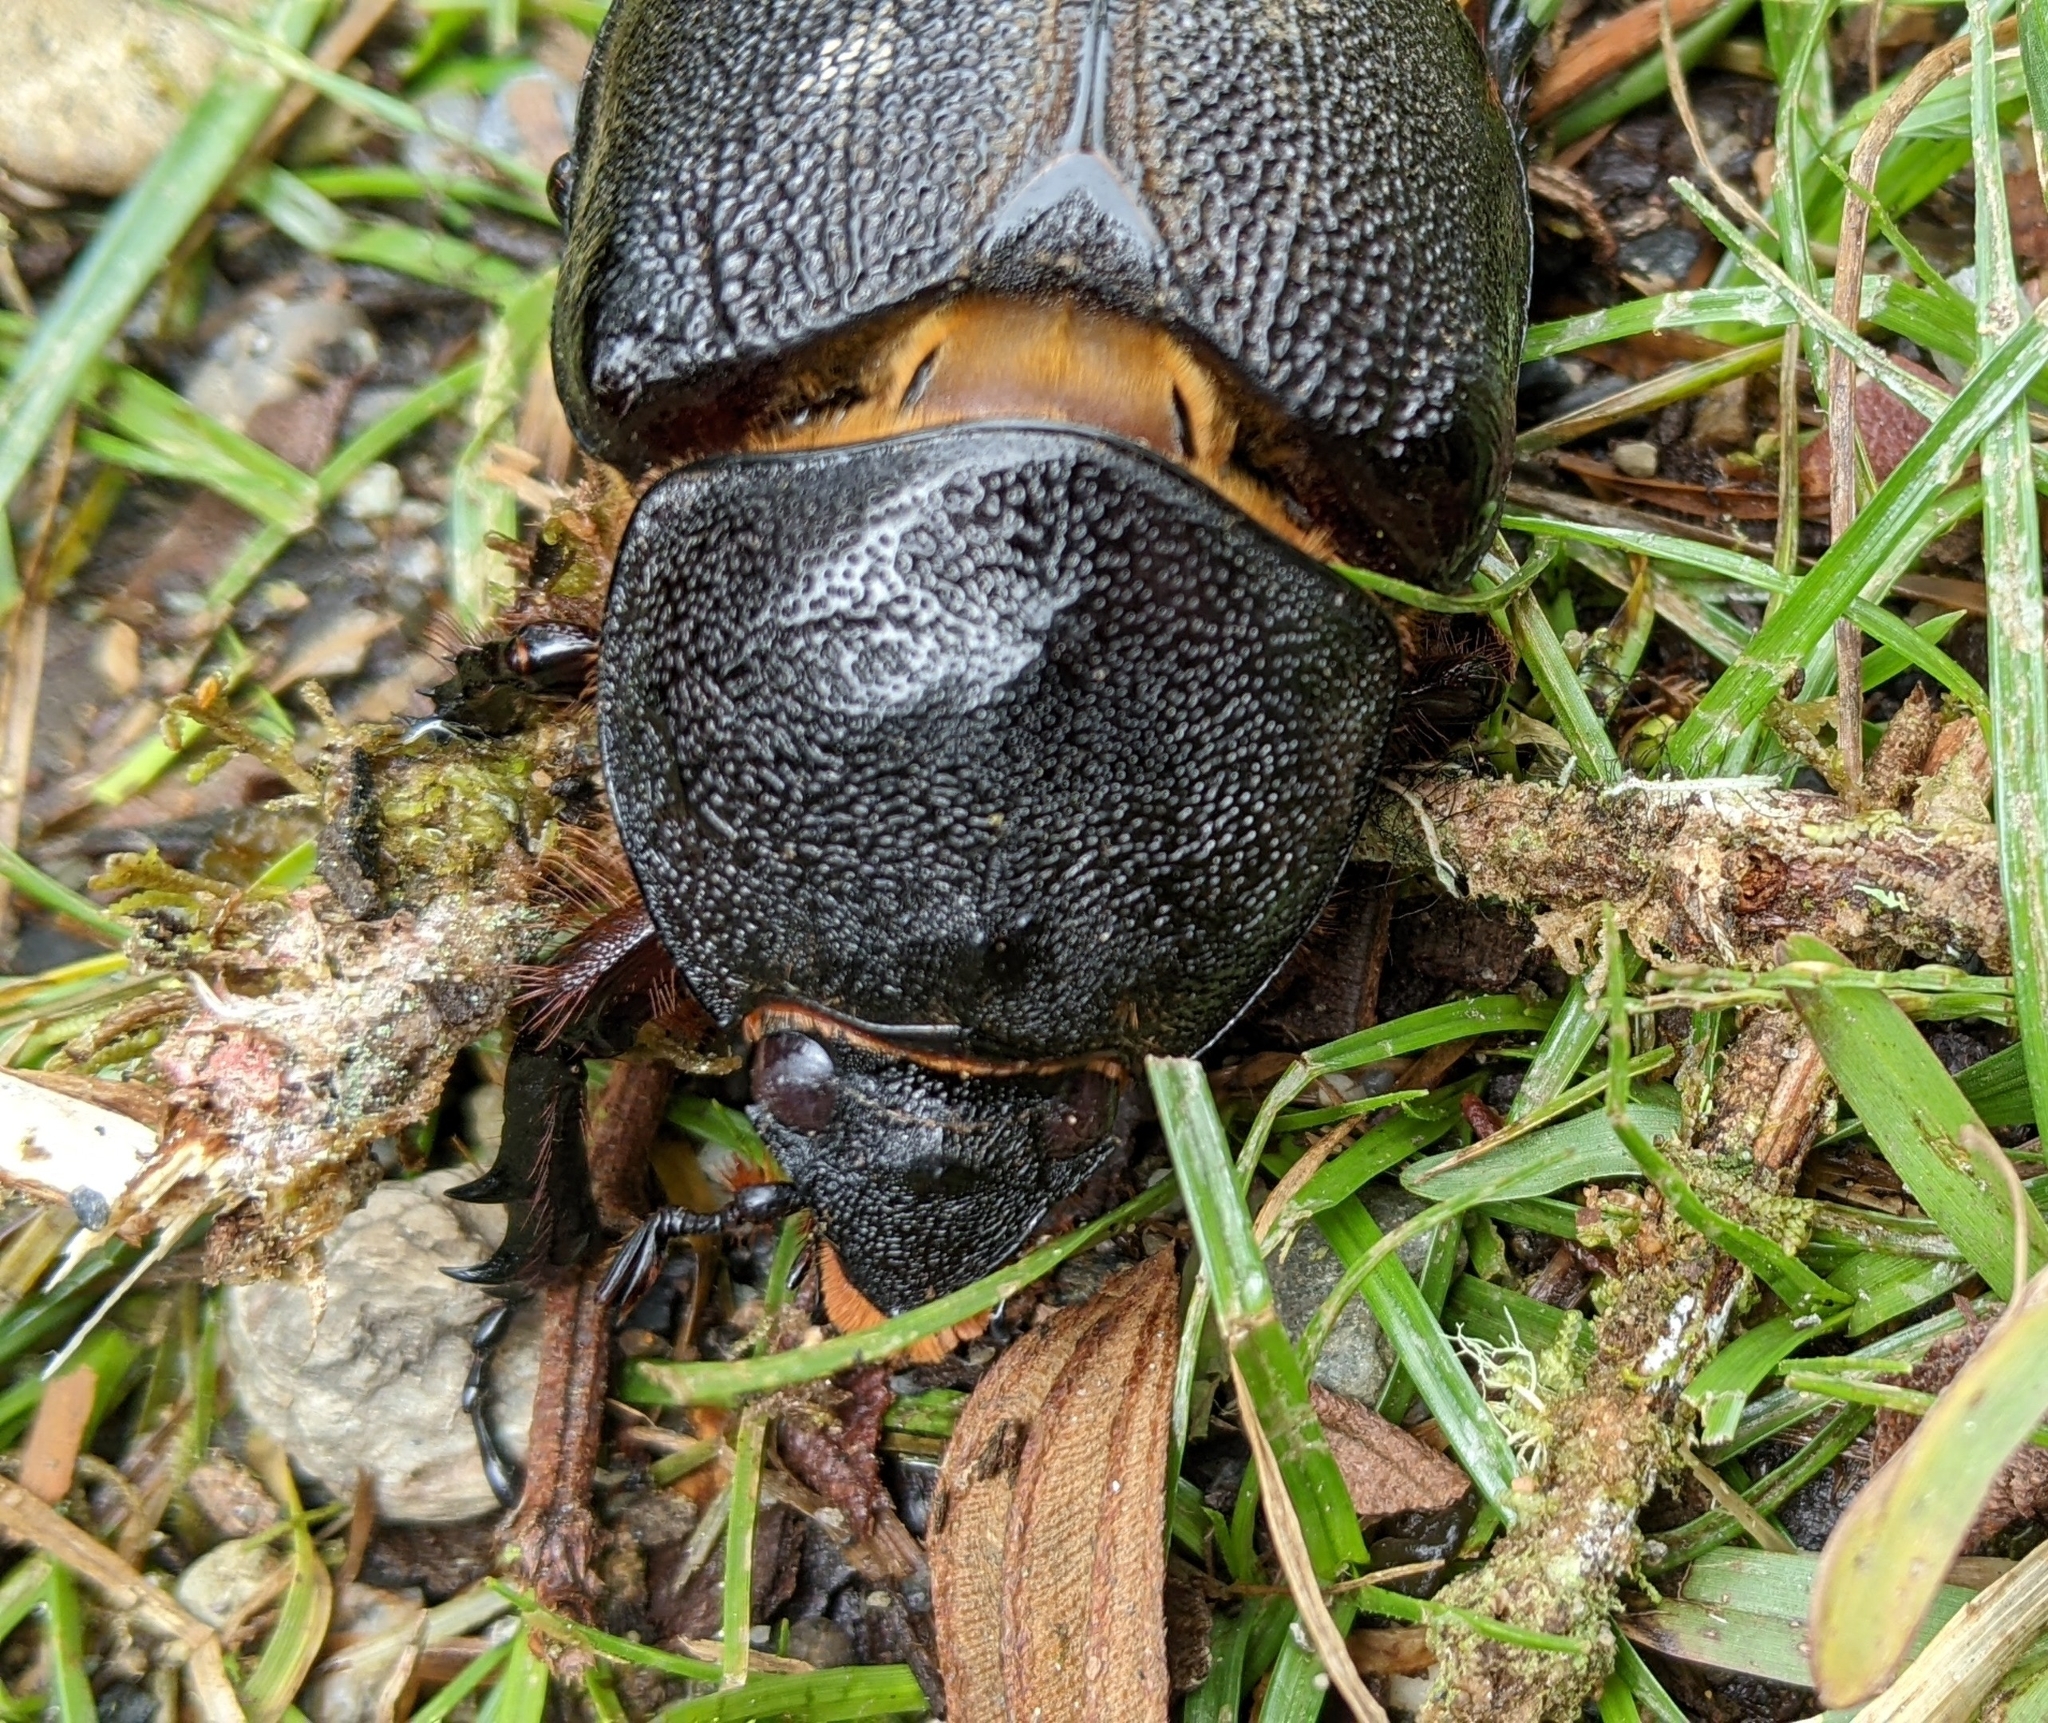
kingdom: Animalia
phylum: Arthropoda
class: Insecta
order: Coleoptera
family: Scarabaeidae
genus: Dynastes
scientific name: Dynastes neptunus
